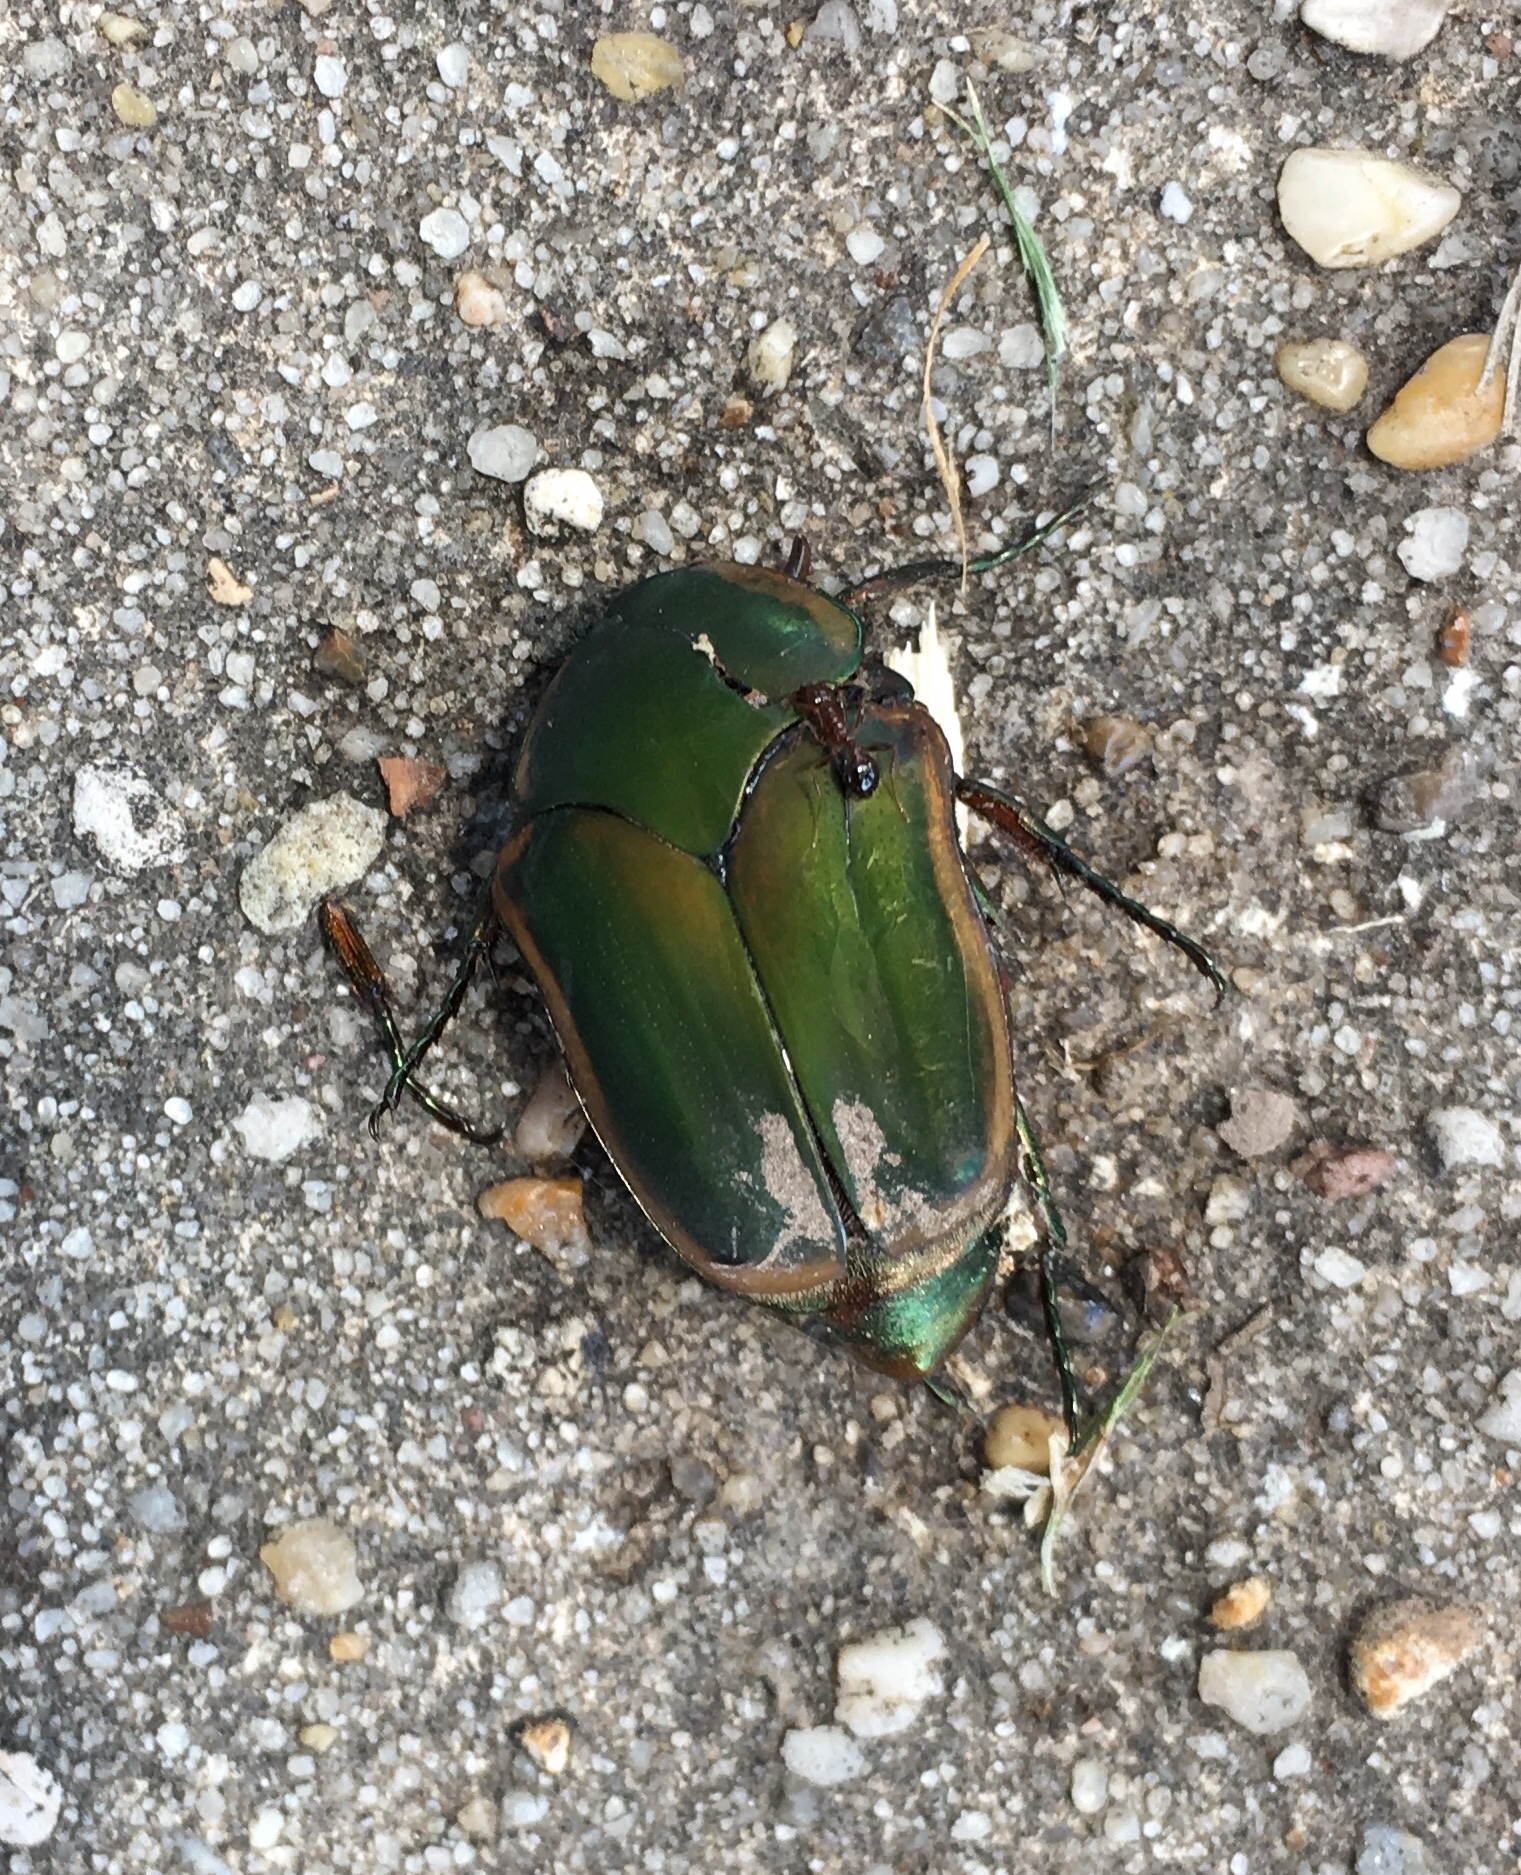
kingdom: Animalia
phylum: Arthropoda
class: Insecta
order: Coleoptera
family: Scarabaeidae
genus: Cotinis
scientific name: Cotinis nitida
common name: Common green june beetle
